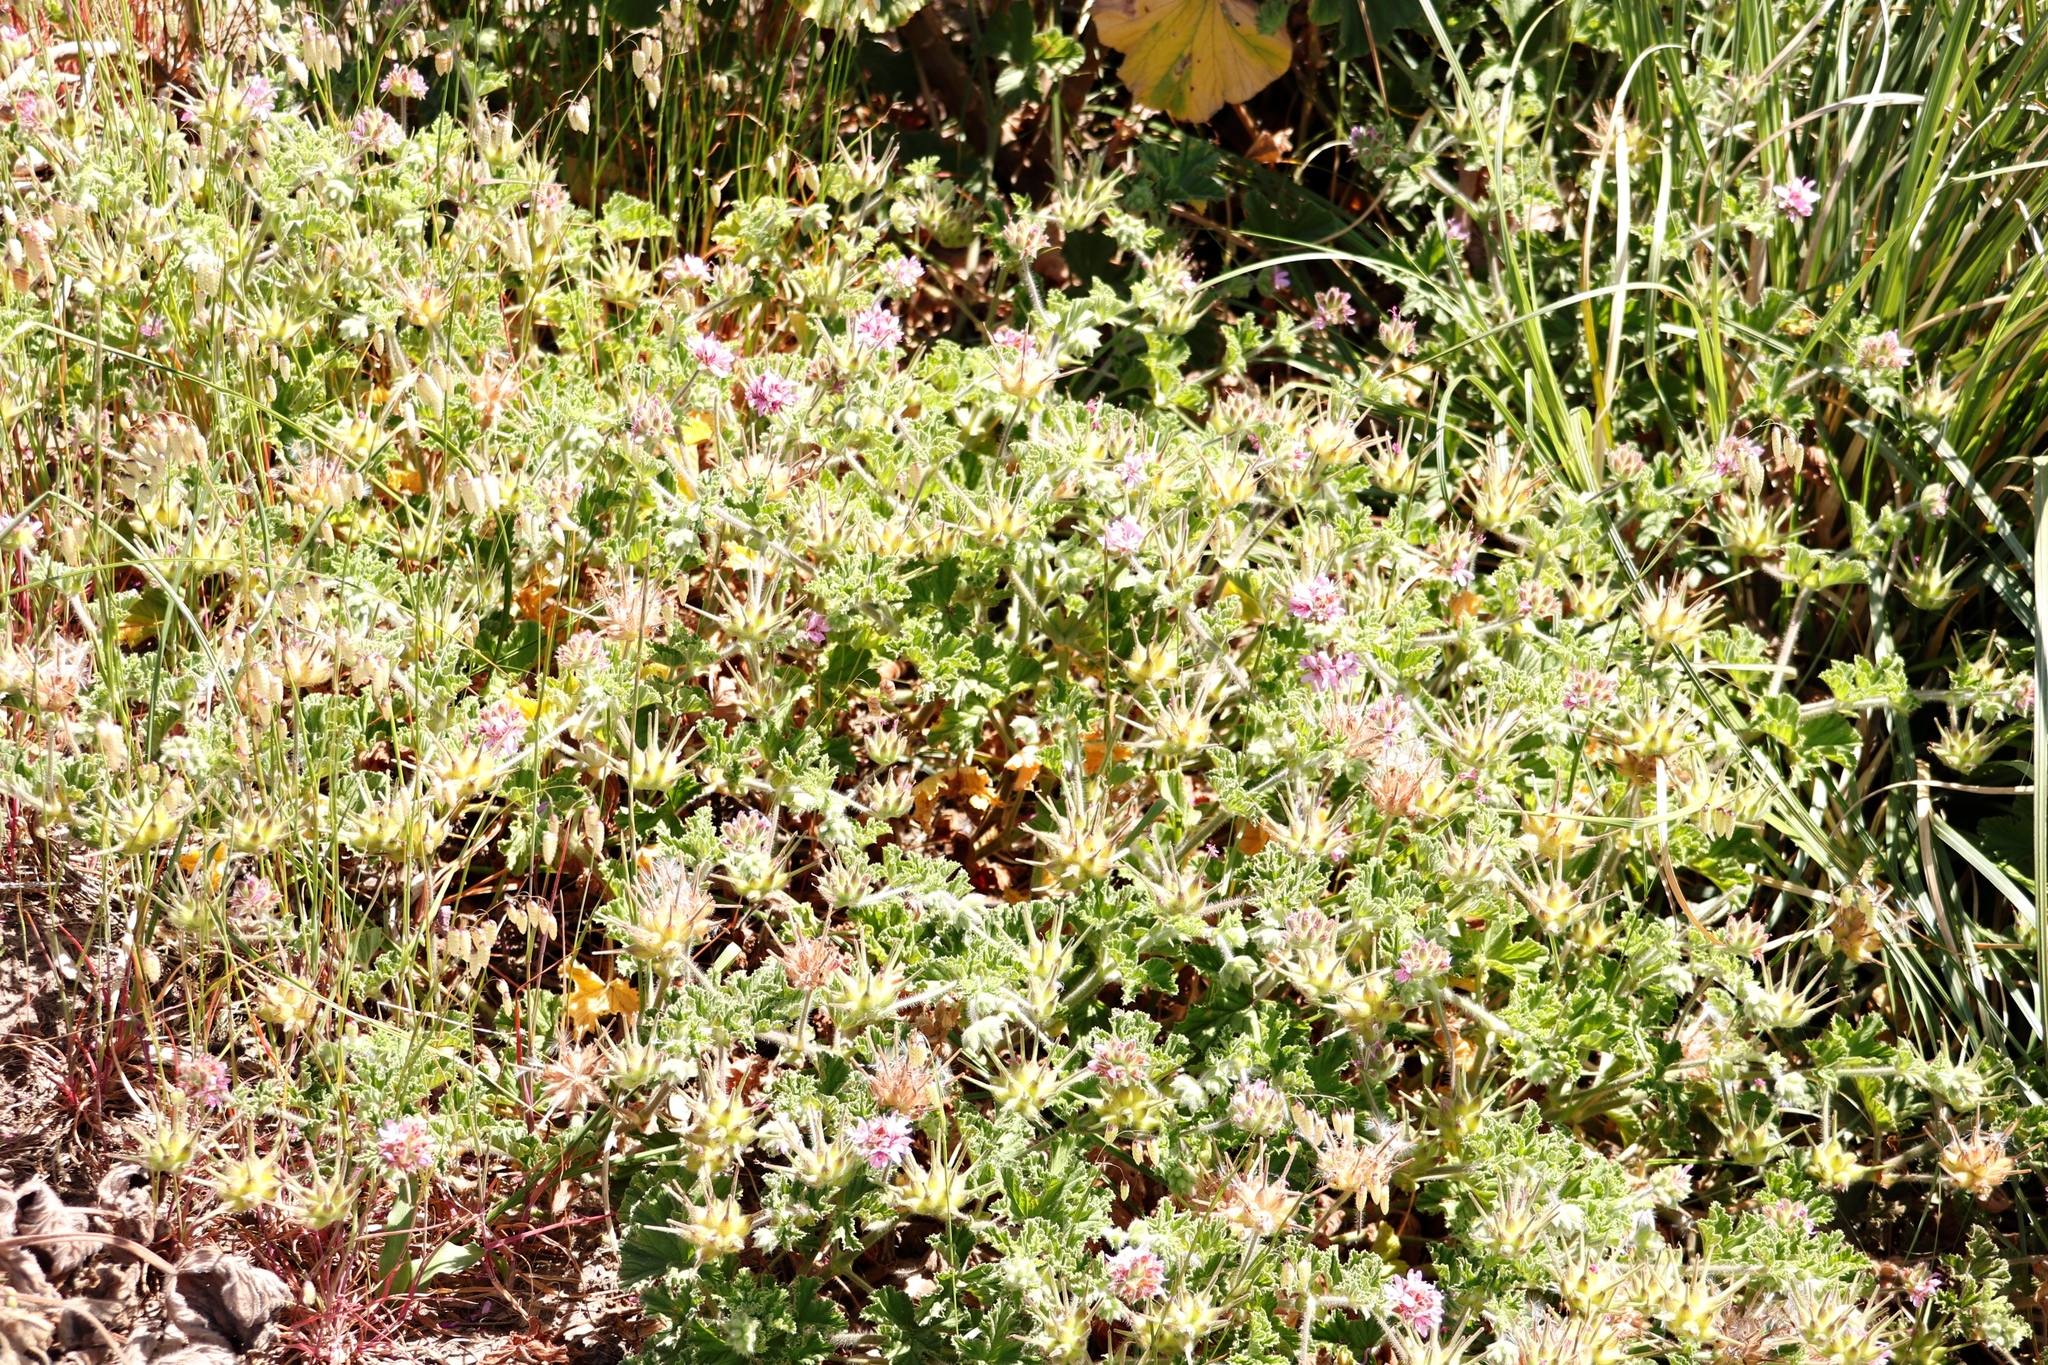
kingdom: Plantae
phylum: Tracheophyta
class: Magnoliopsida
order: Geraniales
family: Geraniaceae
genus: Pelargonium
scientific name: Pelargonium capitatum
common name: Rose scented geranium
